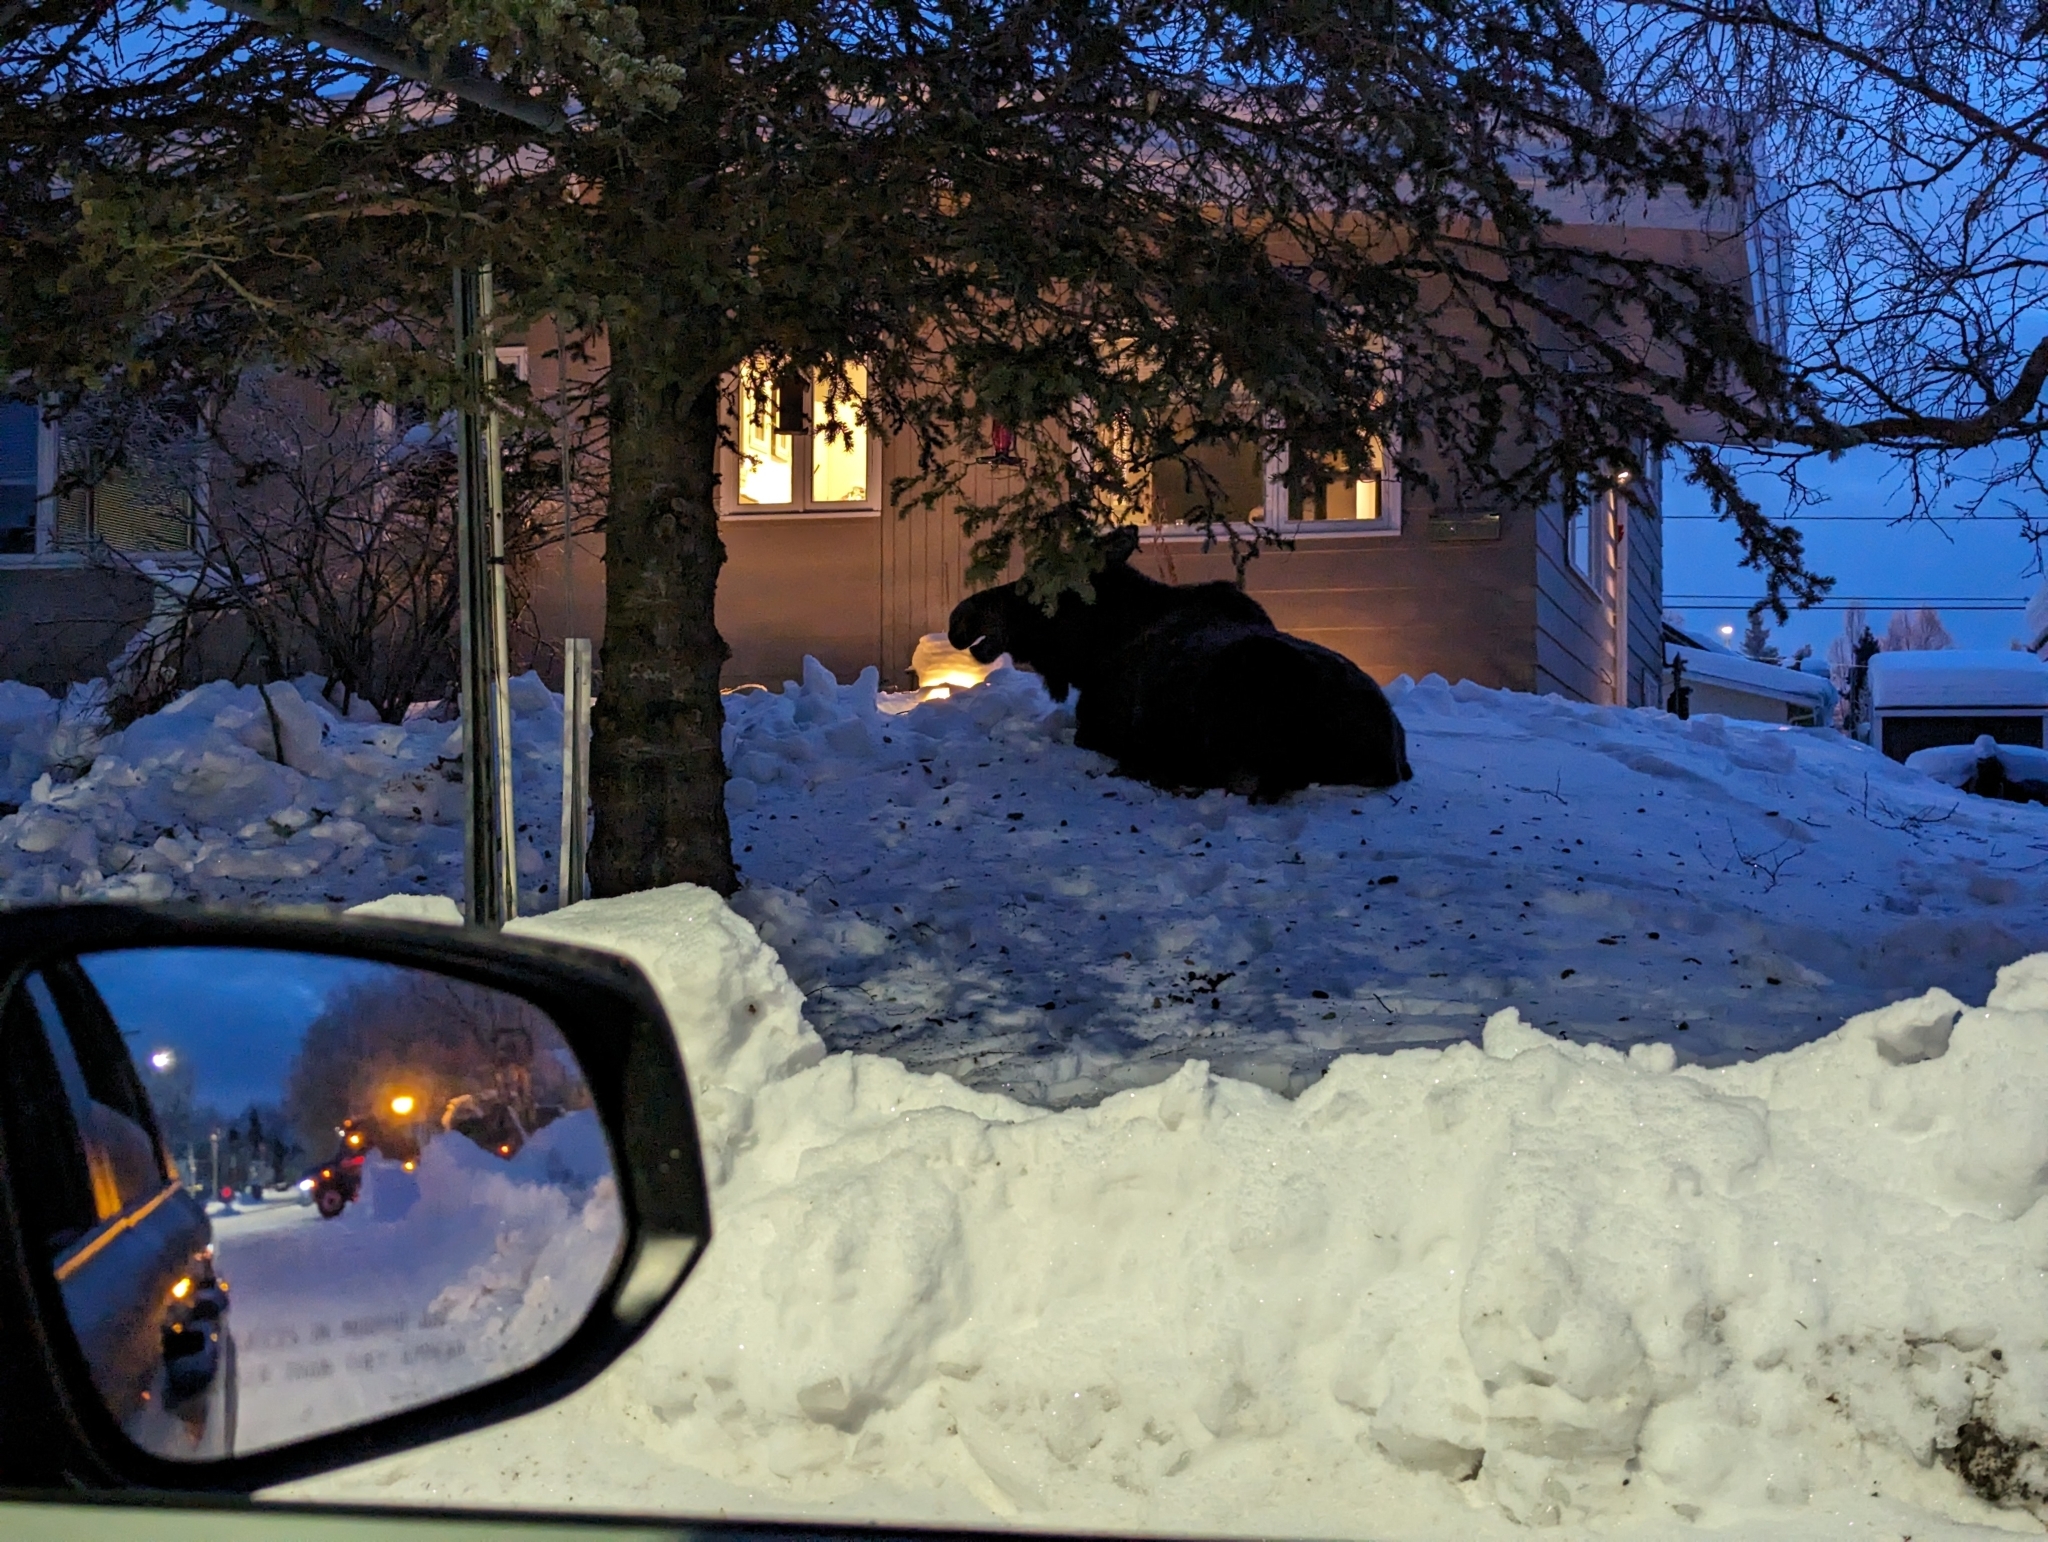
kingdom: Animalia
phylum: Chordata
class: Mammalia
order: Artiodactyla
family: Cervidae
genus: Alces
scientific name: Alces alces
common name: Moose
